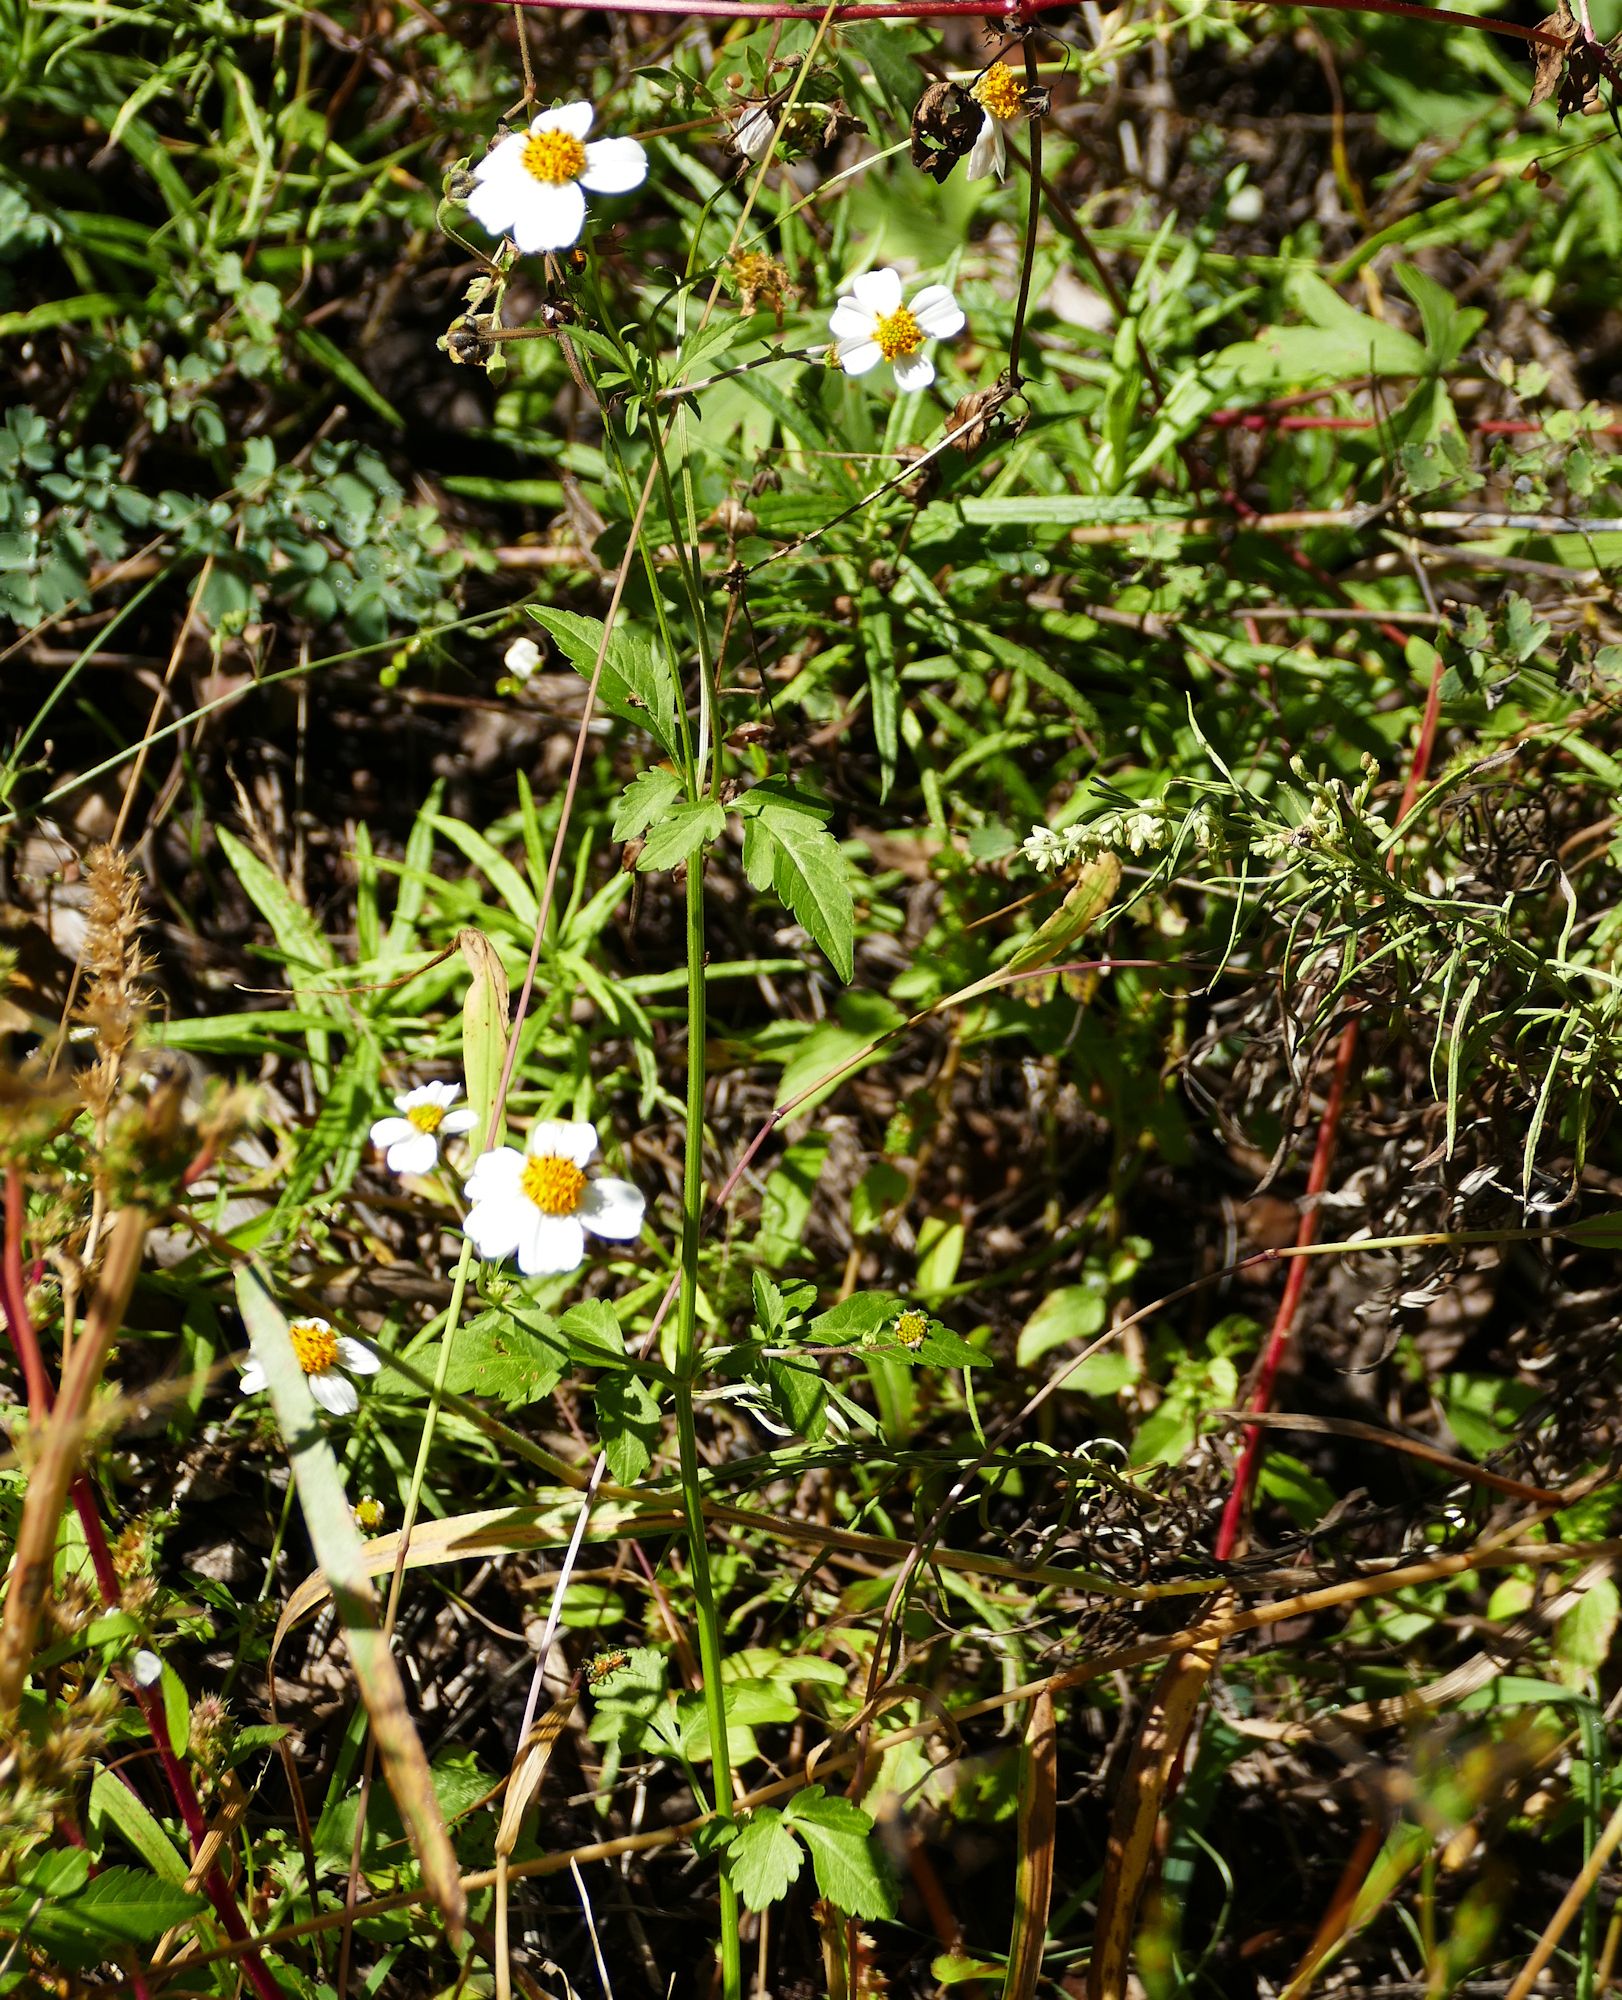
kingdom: Plantae
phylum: Tracheophyta
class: Magnoliopsida
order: Asterales
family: Asteraceae
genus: Bidens
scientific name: Bidens pilosa
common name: Black-jack
